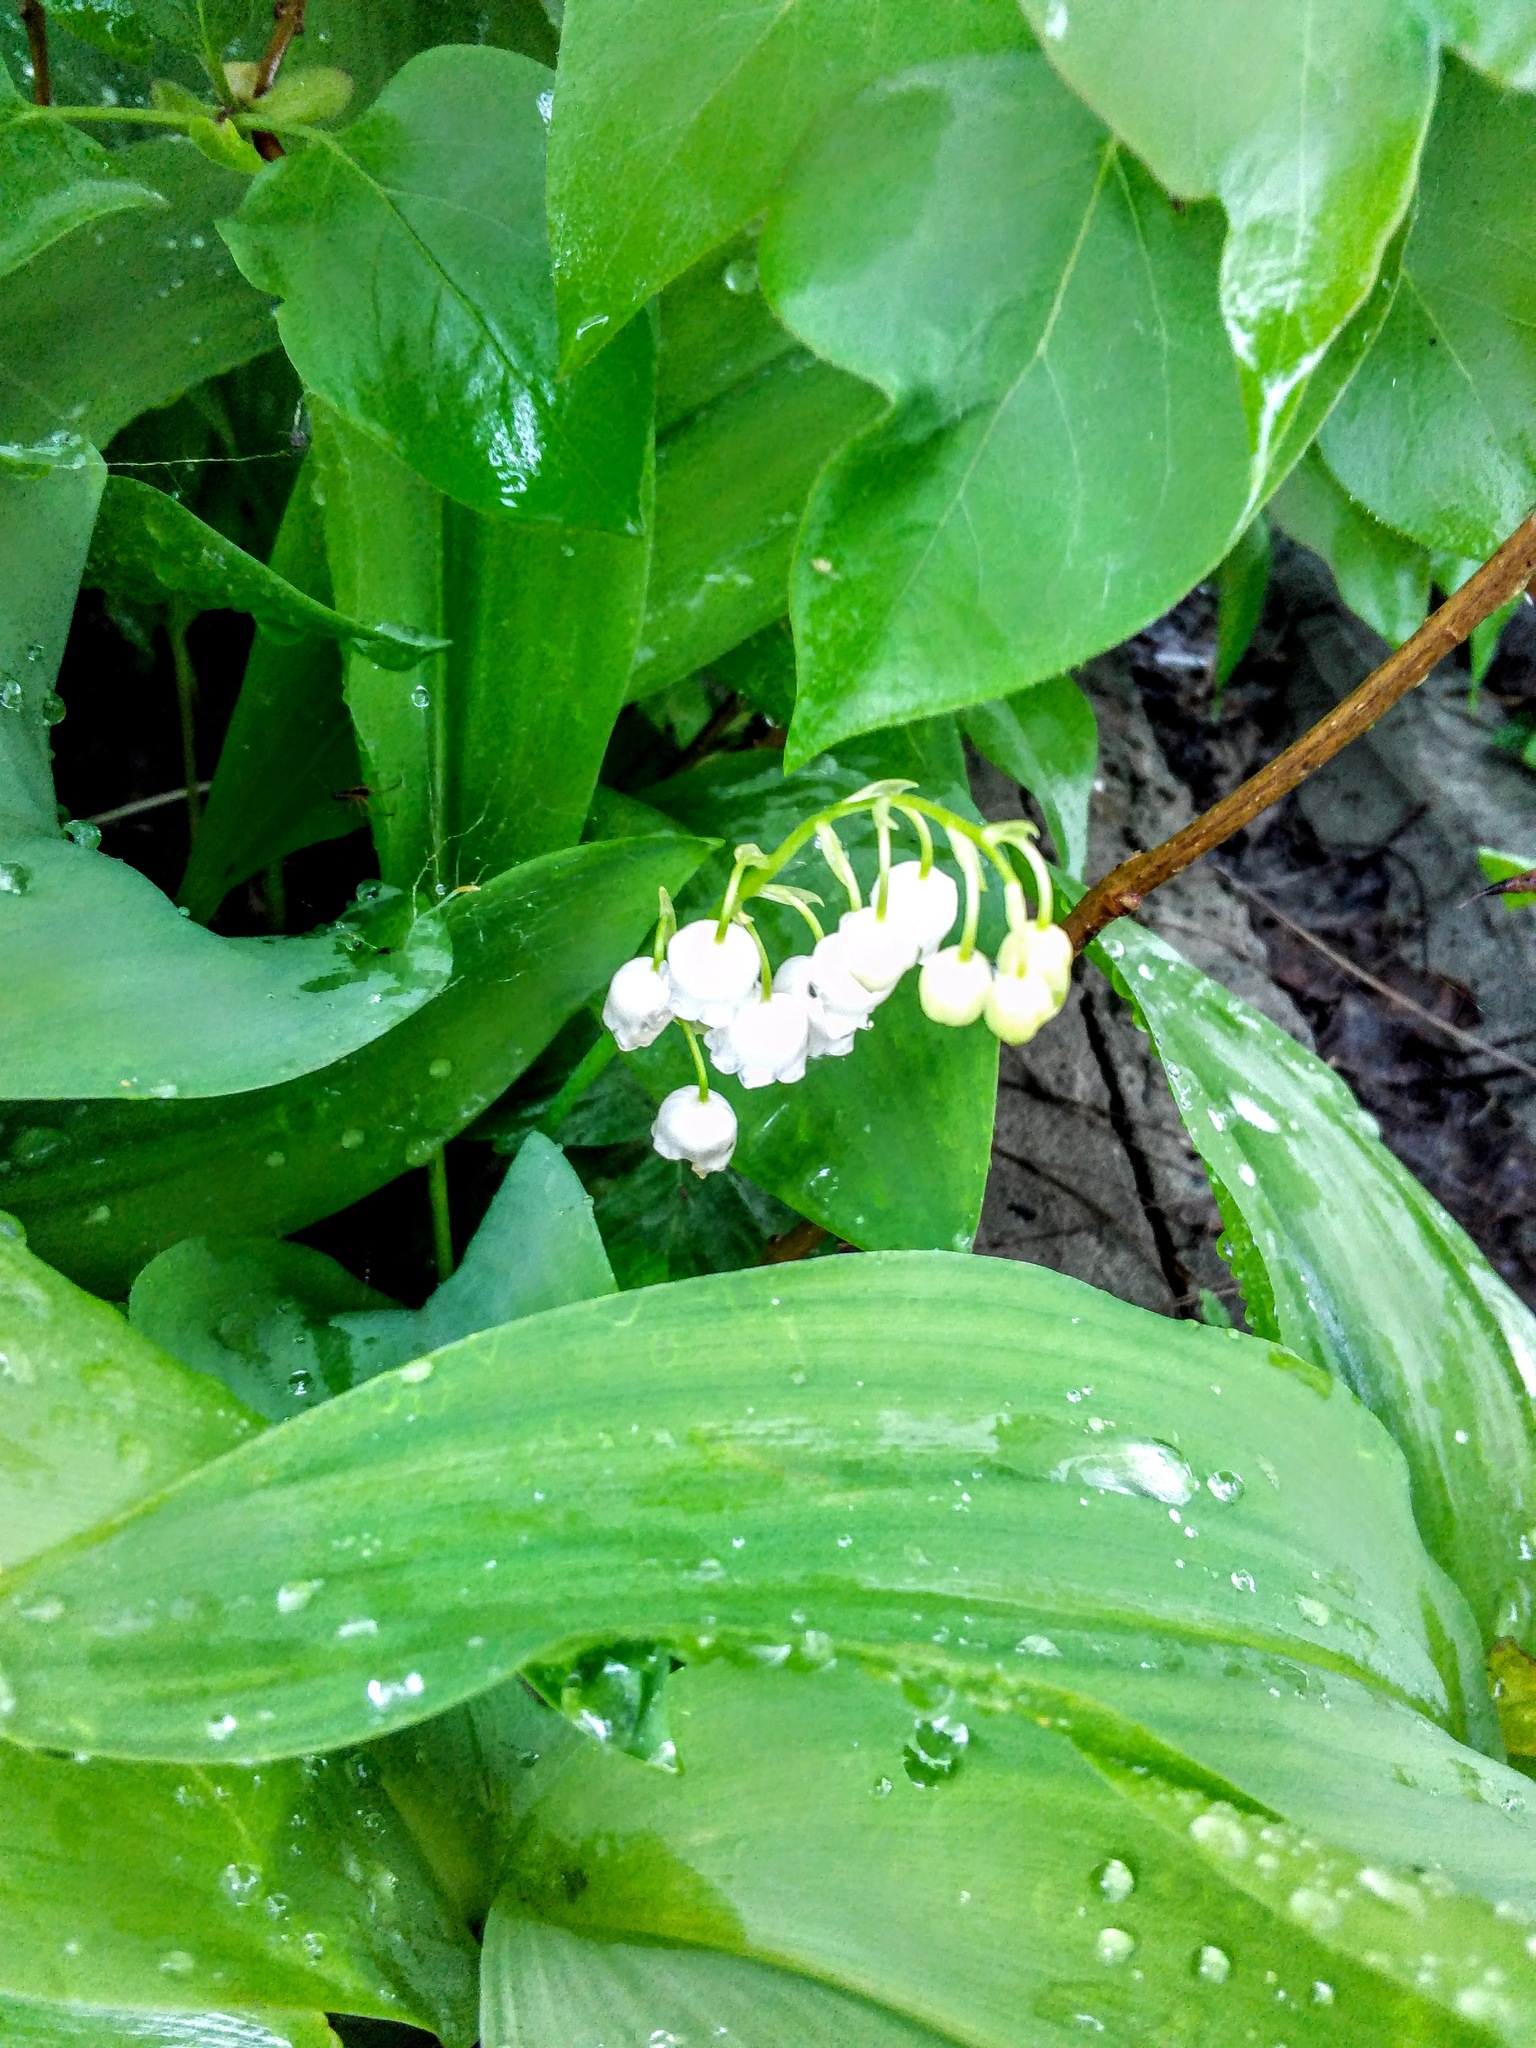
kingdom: Plantae
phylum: Tracheophyta
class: Liliopsida
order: Asparagales
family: Asparagaceae
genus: Convallaria
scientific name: Convallaria majalis
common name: Lily-of-the-valley
